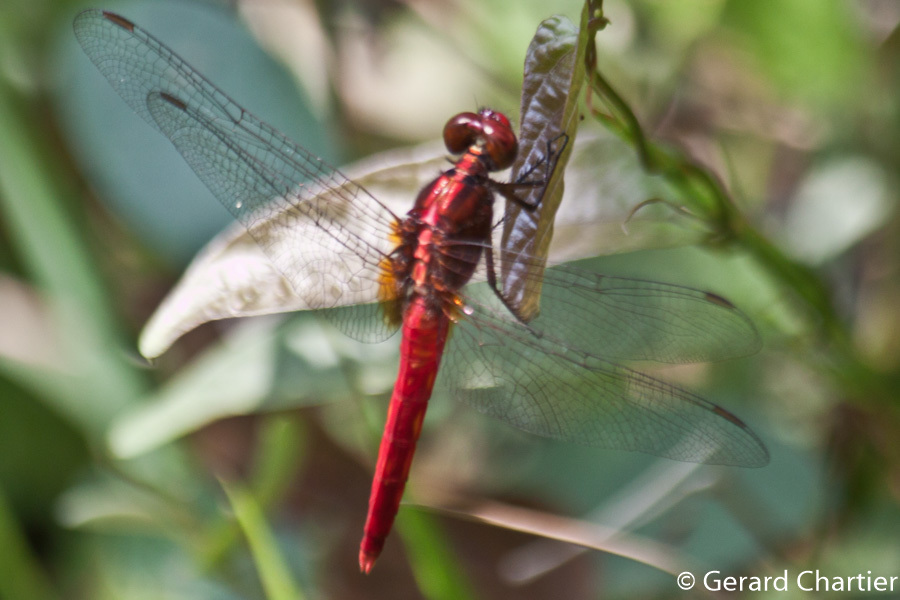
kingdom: Animalia
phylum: Arthropoda
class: Insecta
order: Odonata
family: Libellulidae
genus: Rhodothemis
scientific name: Rhodothemis rufa
